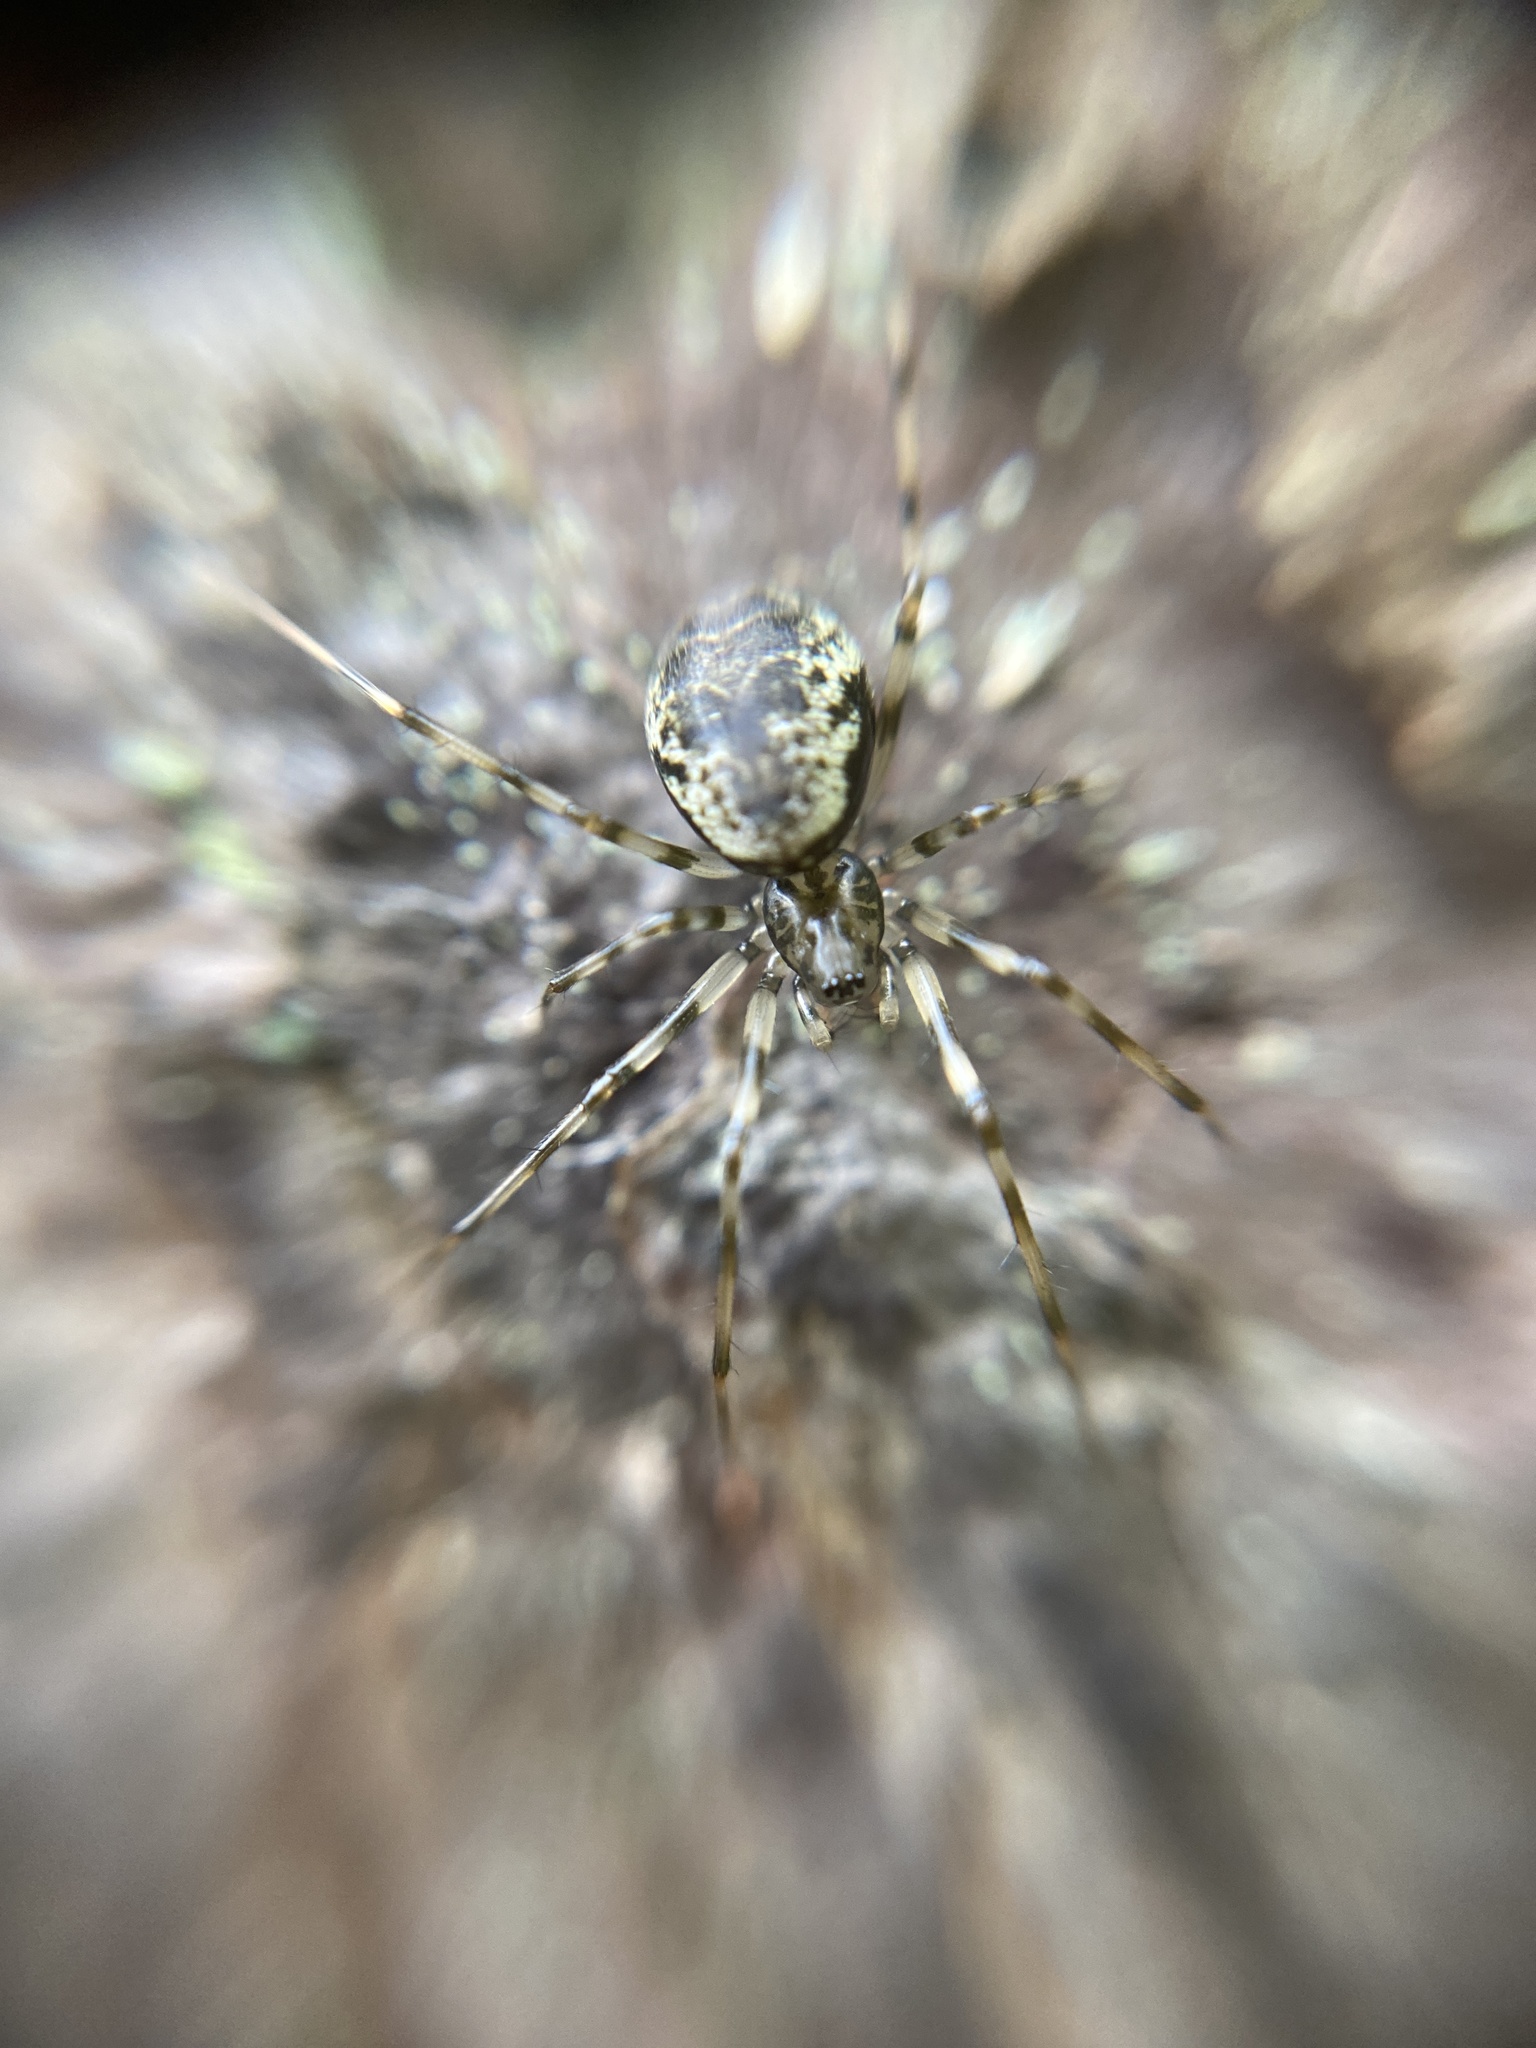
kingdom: Animalia
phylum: Arthropoda
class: Arachnida
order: Araneae
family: Linyphiidae
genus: Drapetisca
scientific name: Drapetisca socialis
